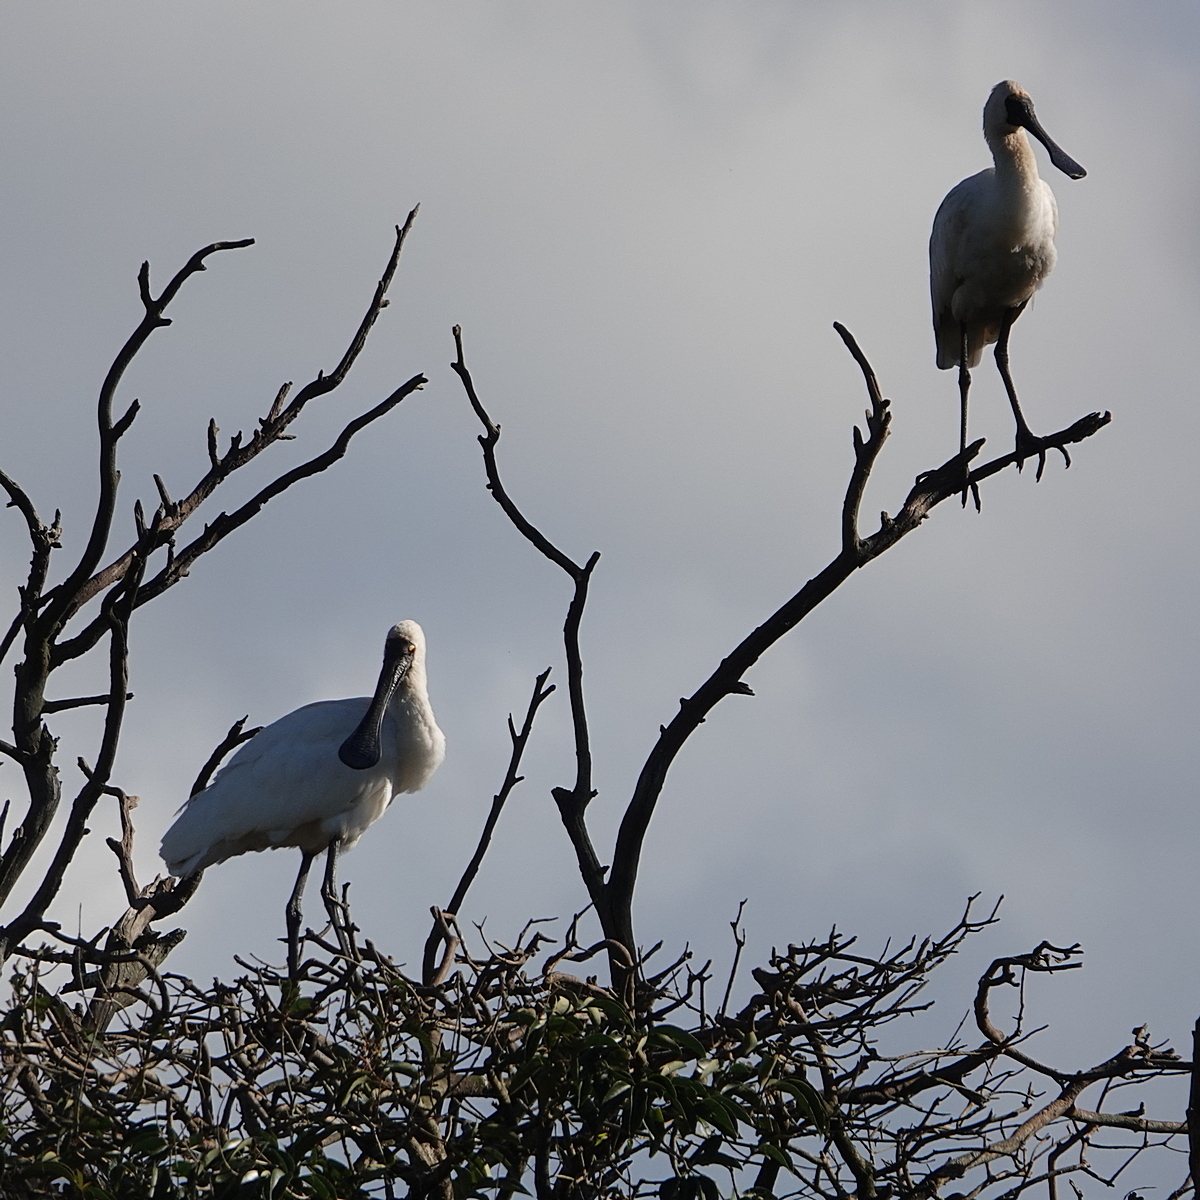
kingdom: Animalia
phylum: Chordata
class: Aves
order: Pelecaniformes
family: Threskiornithidae
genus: Platalea
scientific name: Platalea regia
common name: Royal spoonbill
